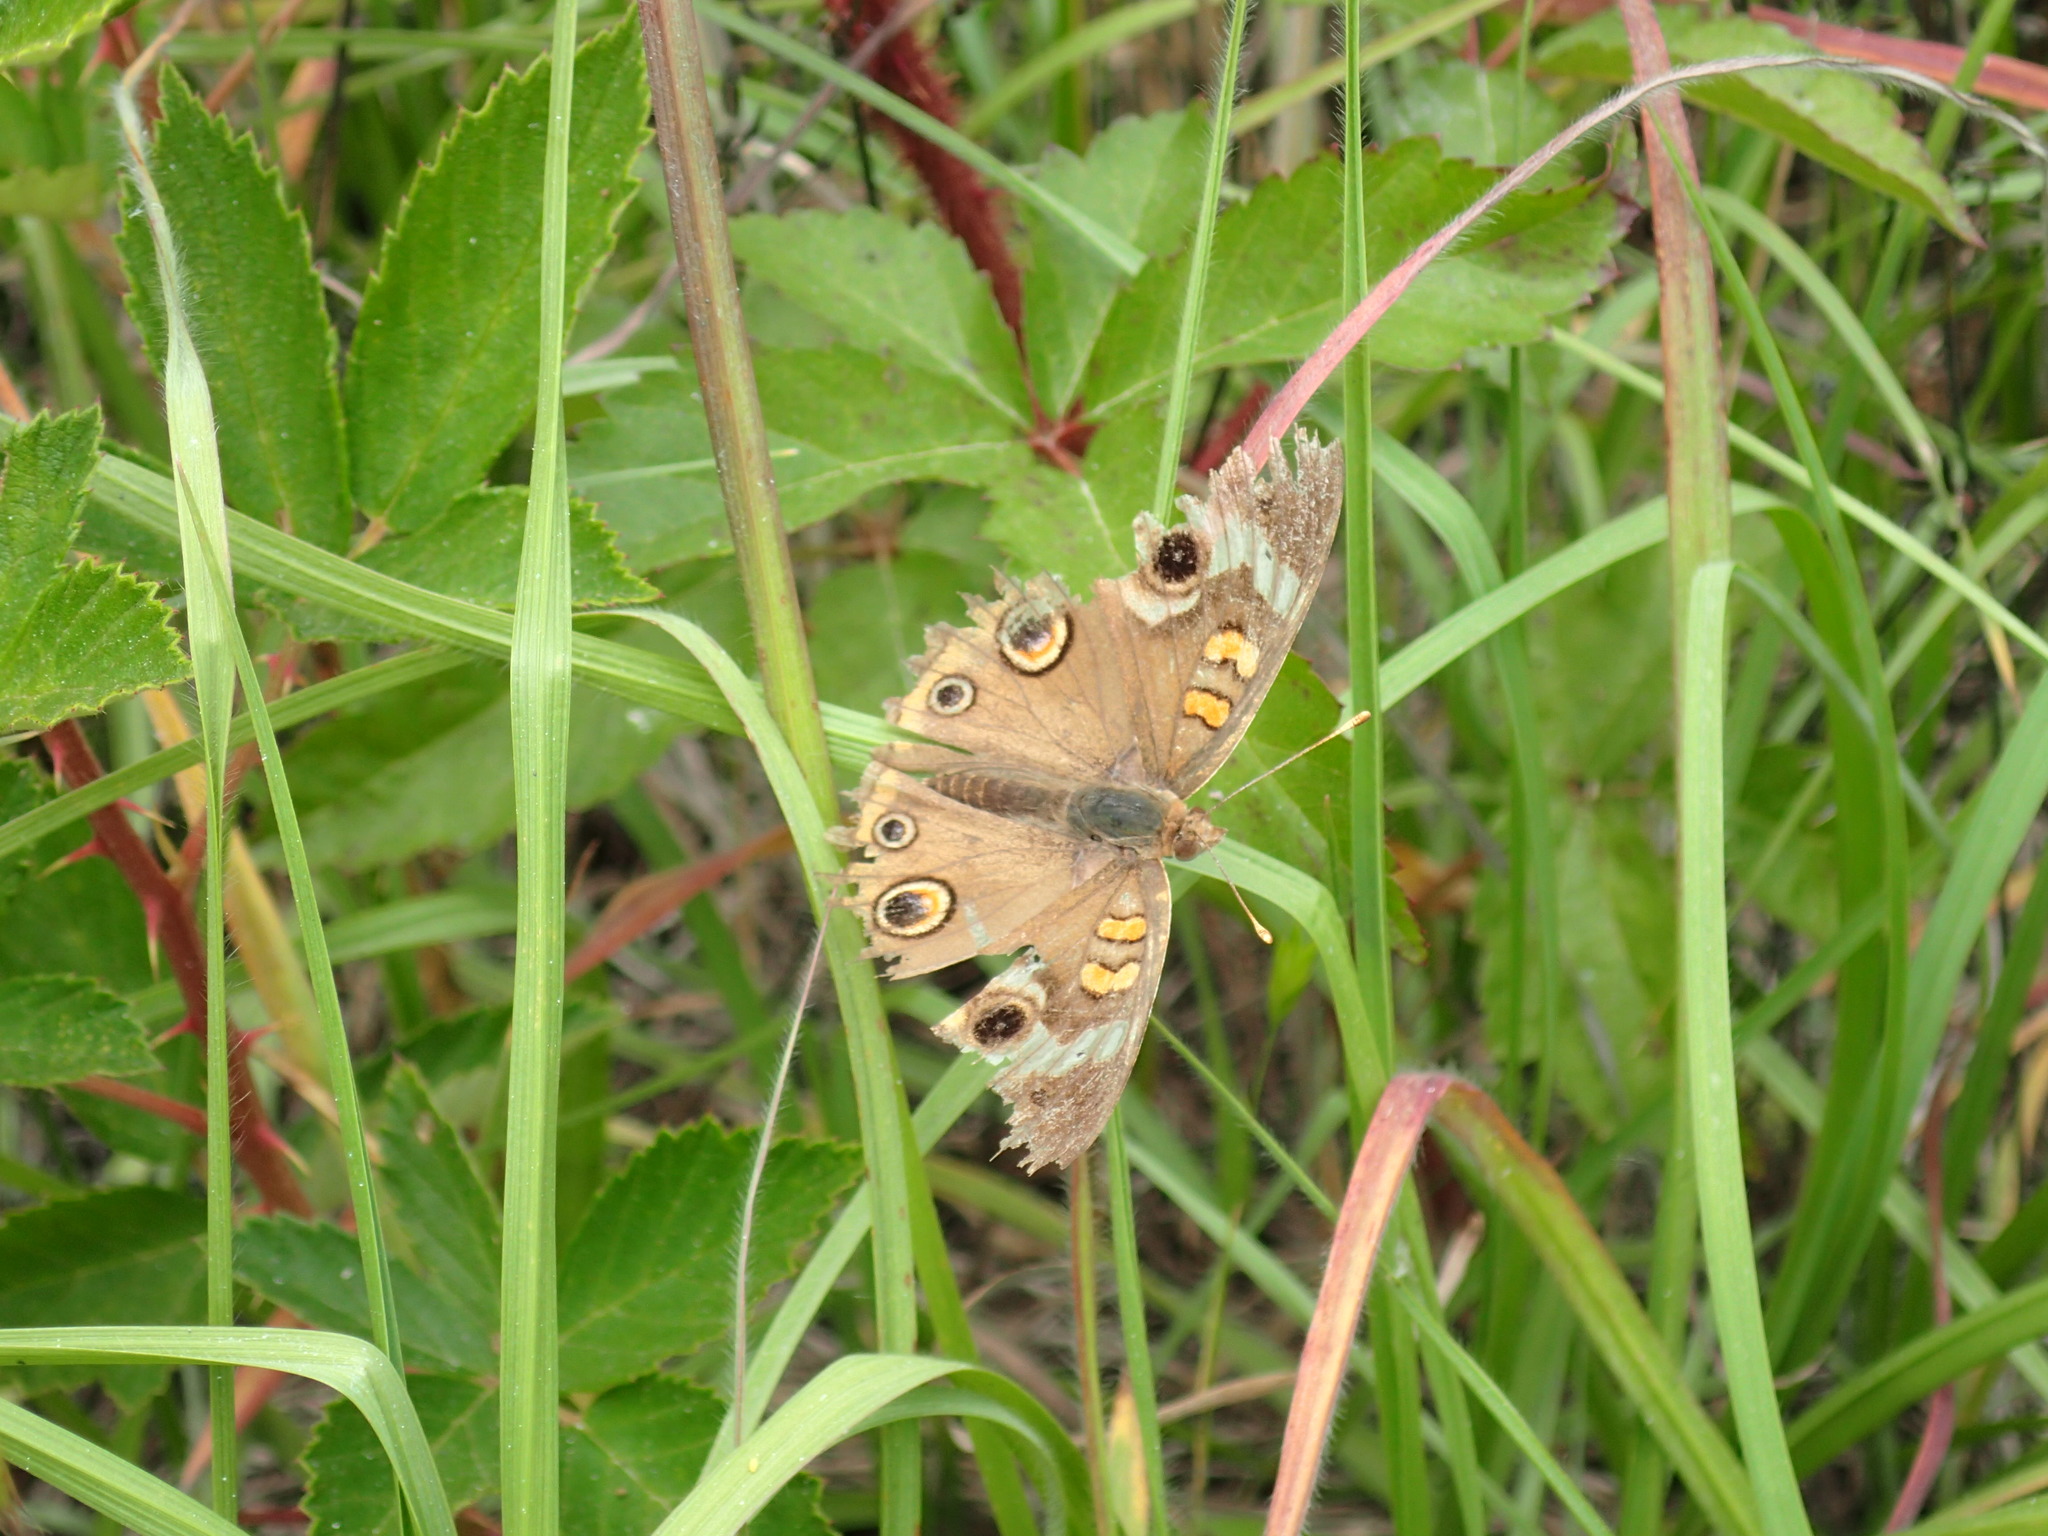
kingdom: Animalia
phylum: Arthropoda
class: Insecta
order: Lepidoptera
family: Nymphalidae
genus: Junonia
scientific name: Junonia coenia
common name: Common buckeye
